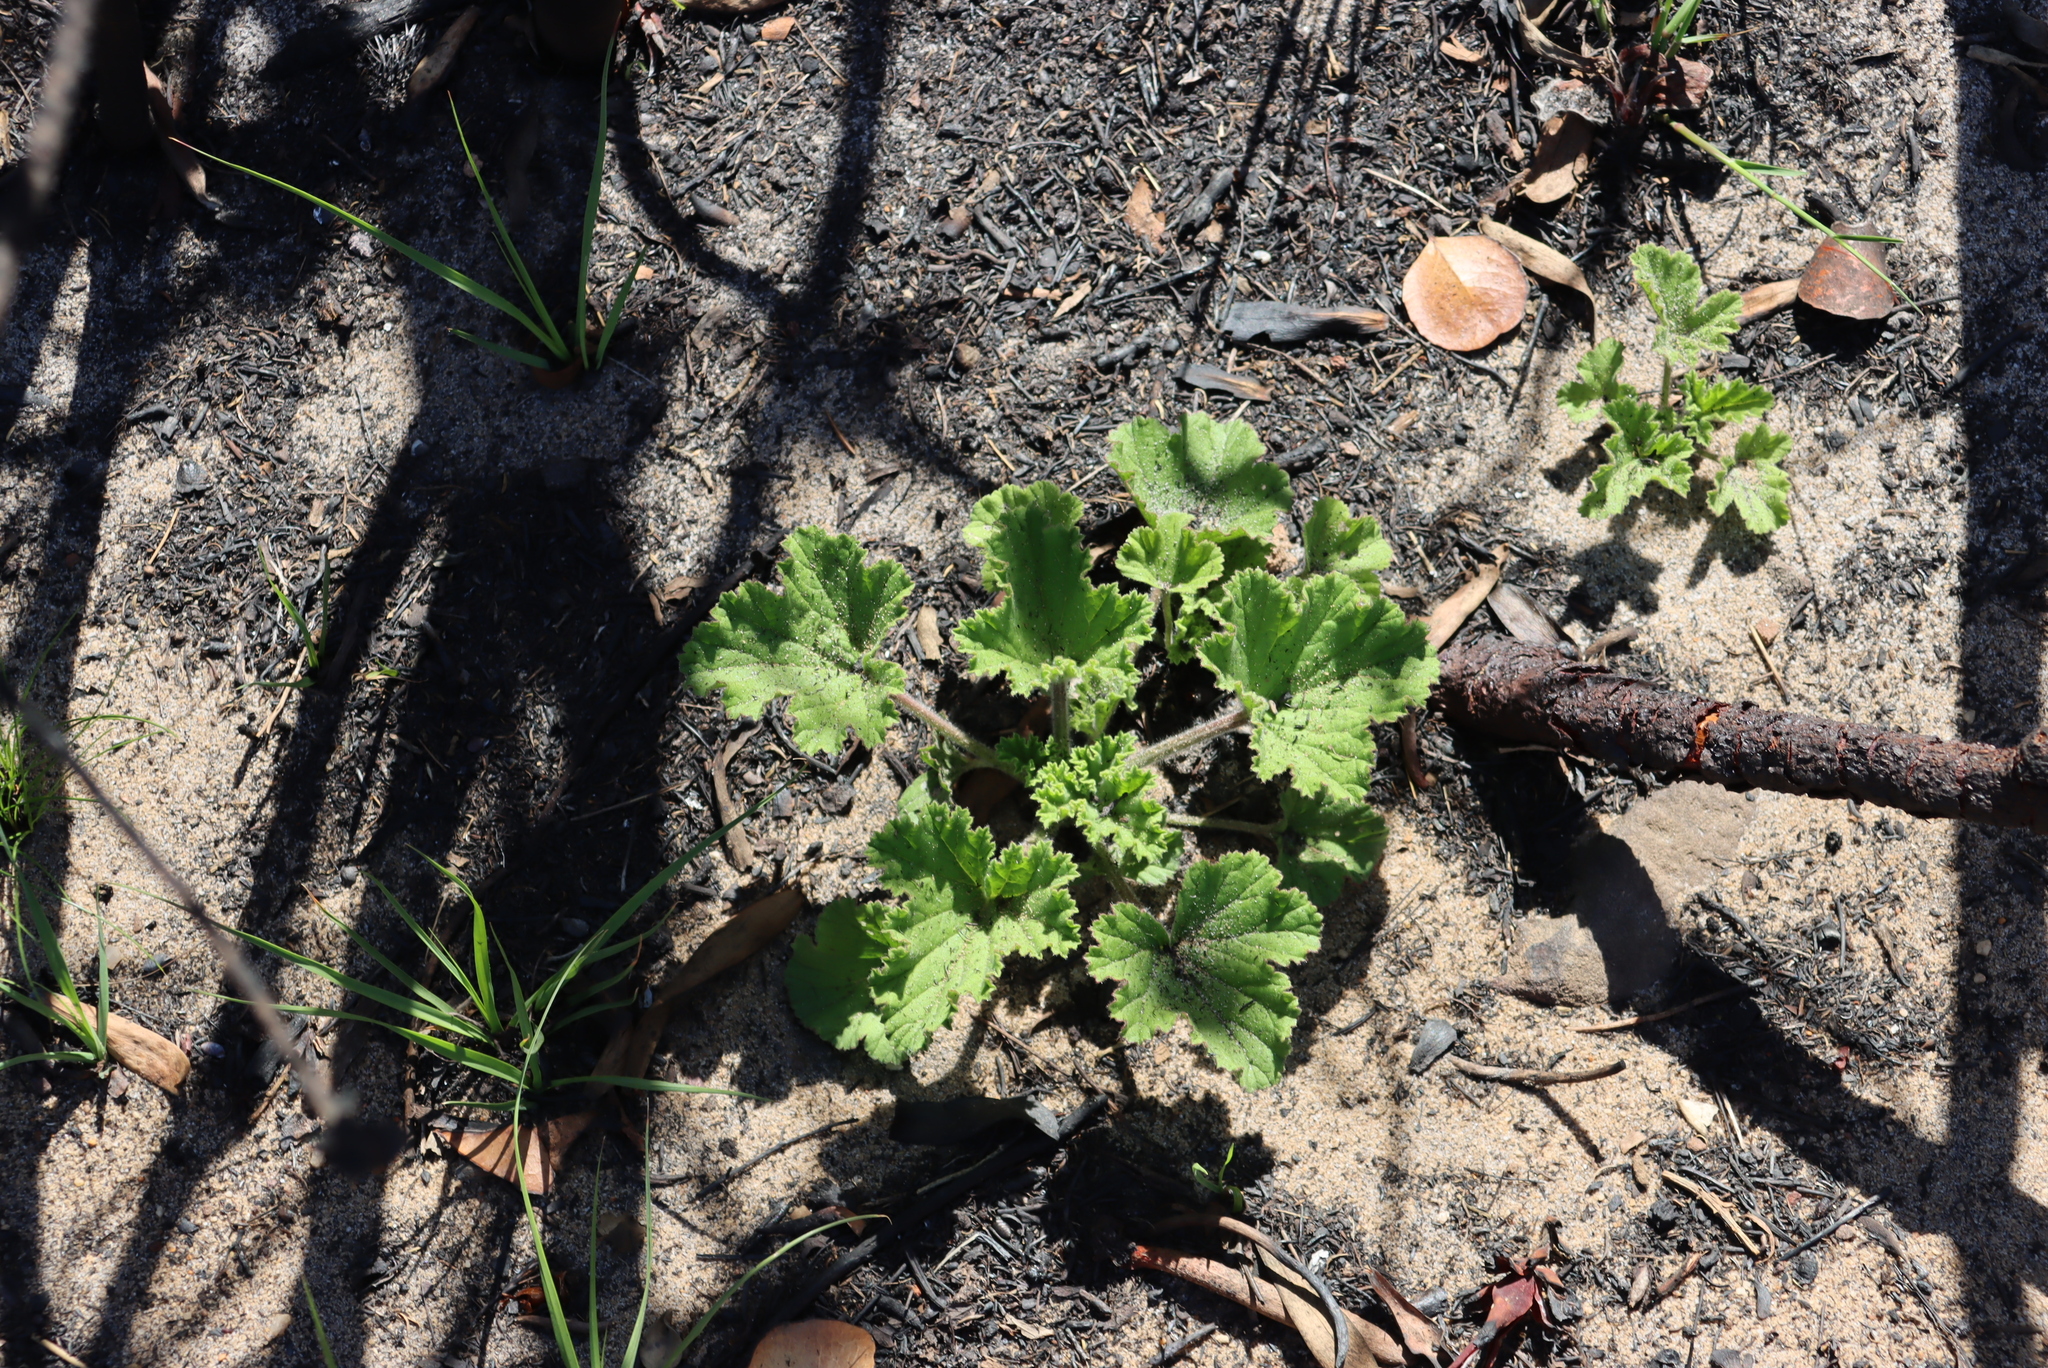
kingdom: Plantae
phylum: Tracheophyta
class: Magnoliopsida
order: Geraniales
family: Geraniaceae
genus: Pelargonium
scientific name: Pelargonium cucullatum
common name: Tree pelargonium
